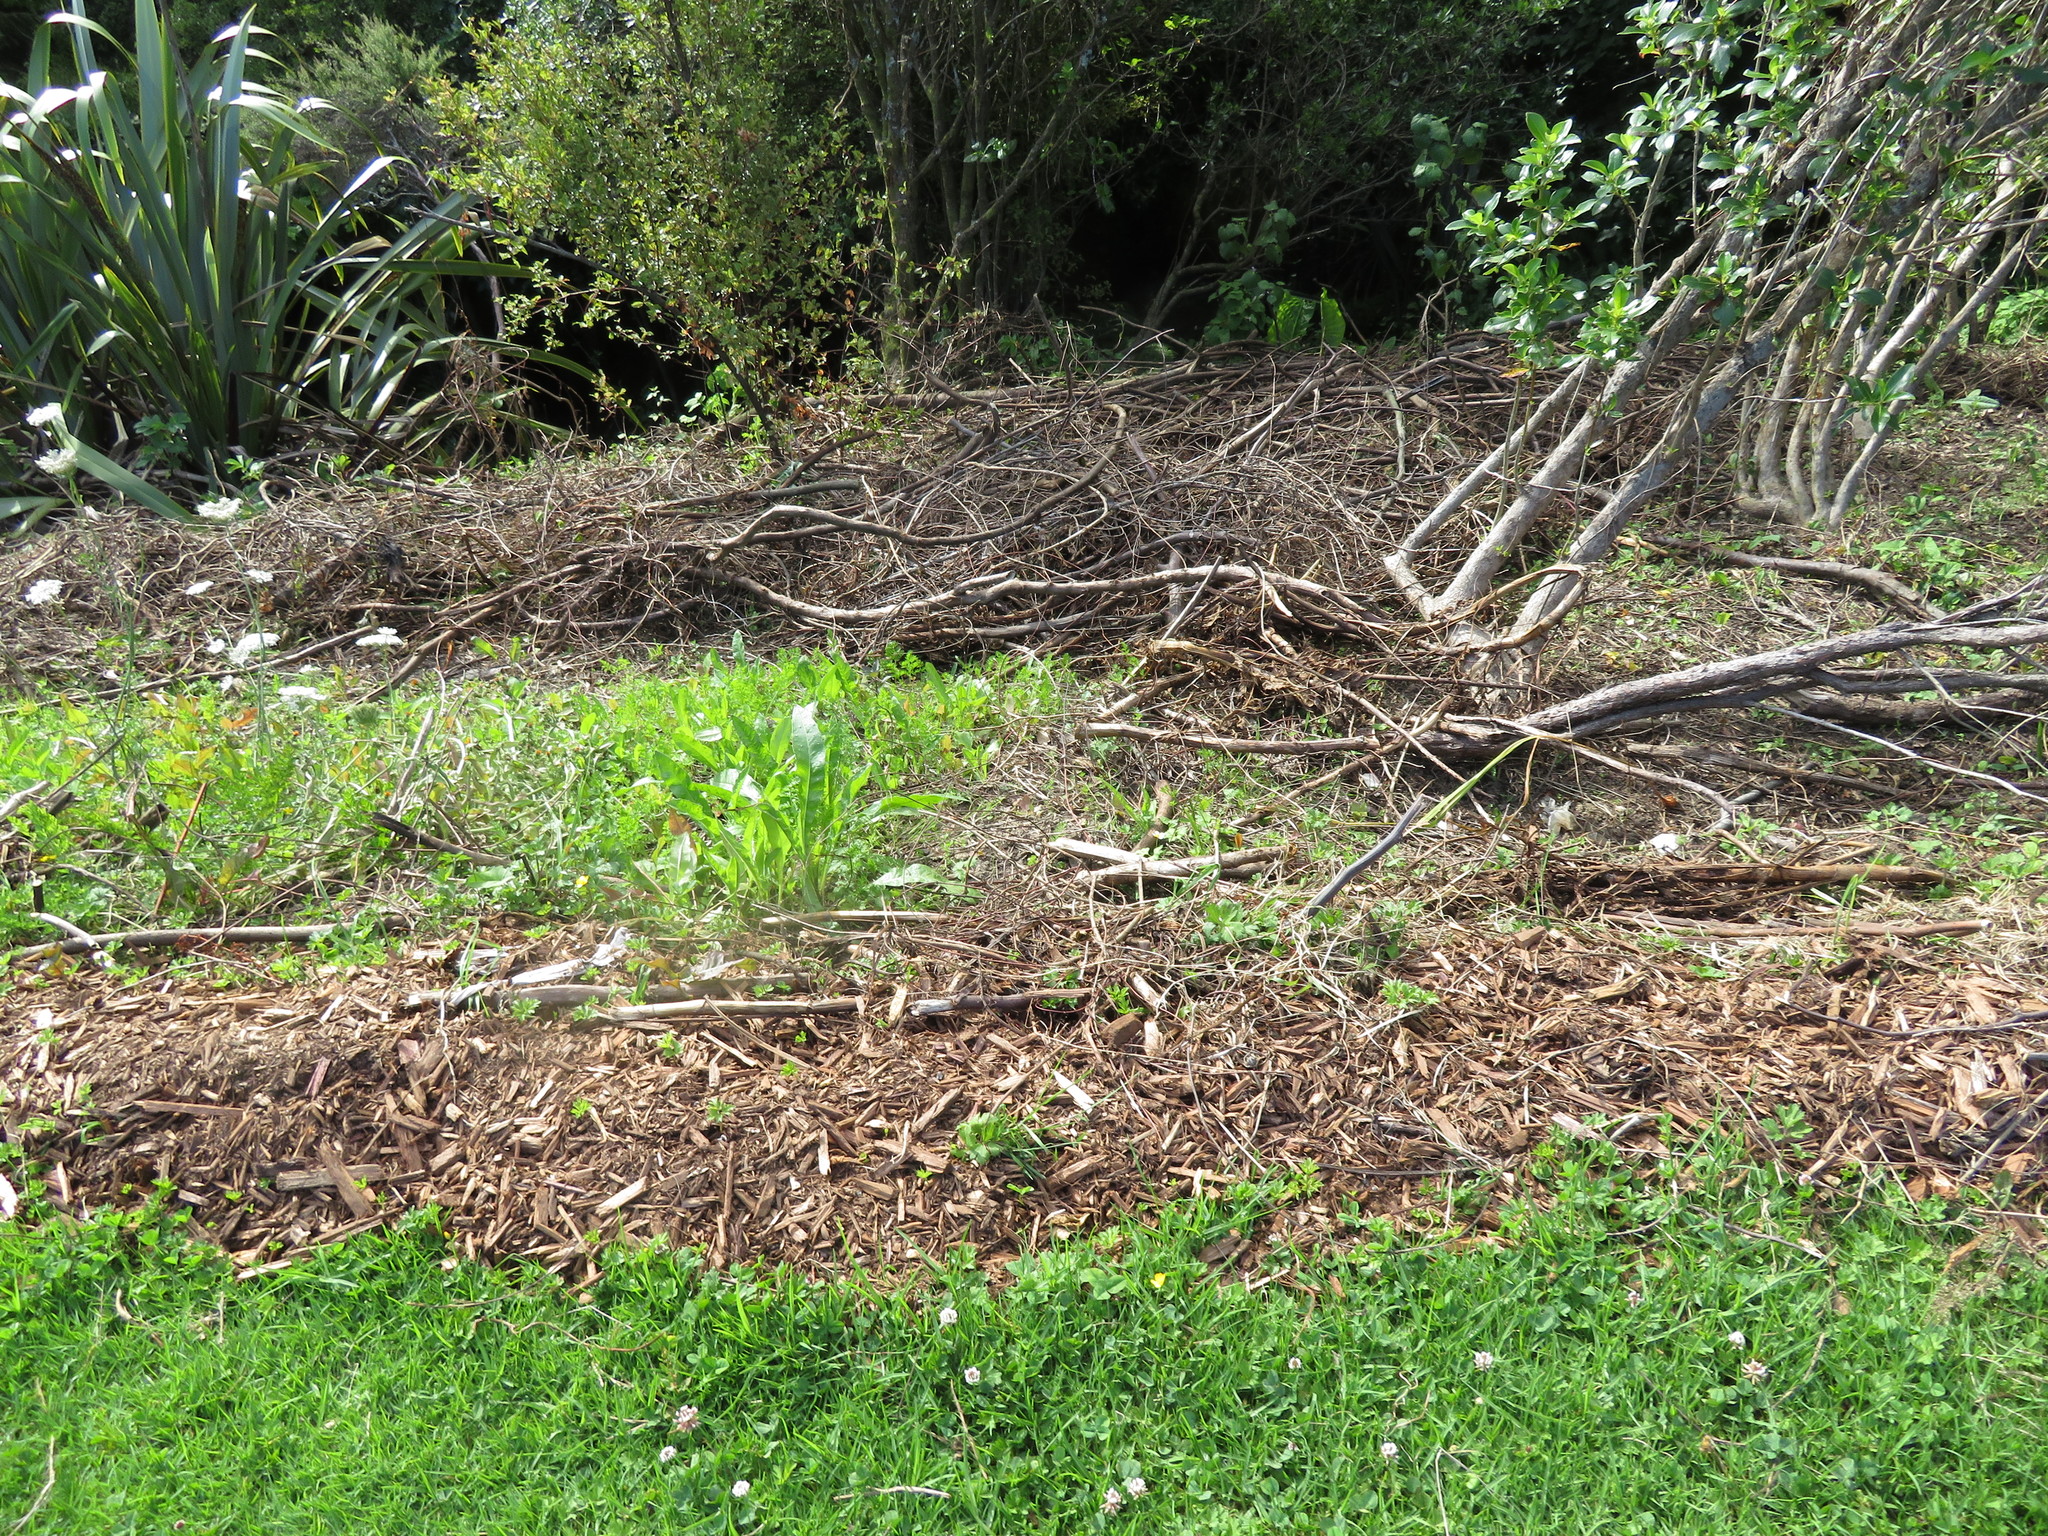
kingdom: Plantae
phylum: Tracheophyta
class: Magnoliopsida
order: Ericales
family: Primulaceae
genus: Myrsine
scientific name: Myrsine australis
